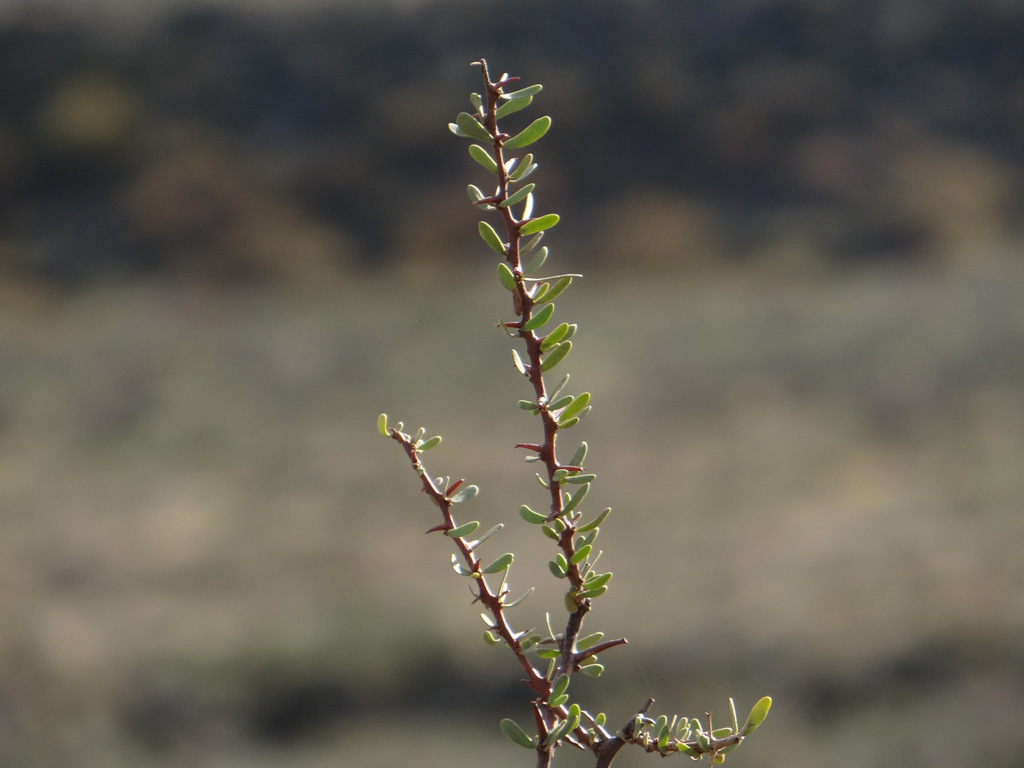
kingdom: Plantae
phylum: Tracheophyta
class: Magnoliopsida
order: Caryophyllales
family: Nyctaginaceae
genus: Bougainvillea
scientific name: Bougainvillea spinosa
